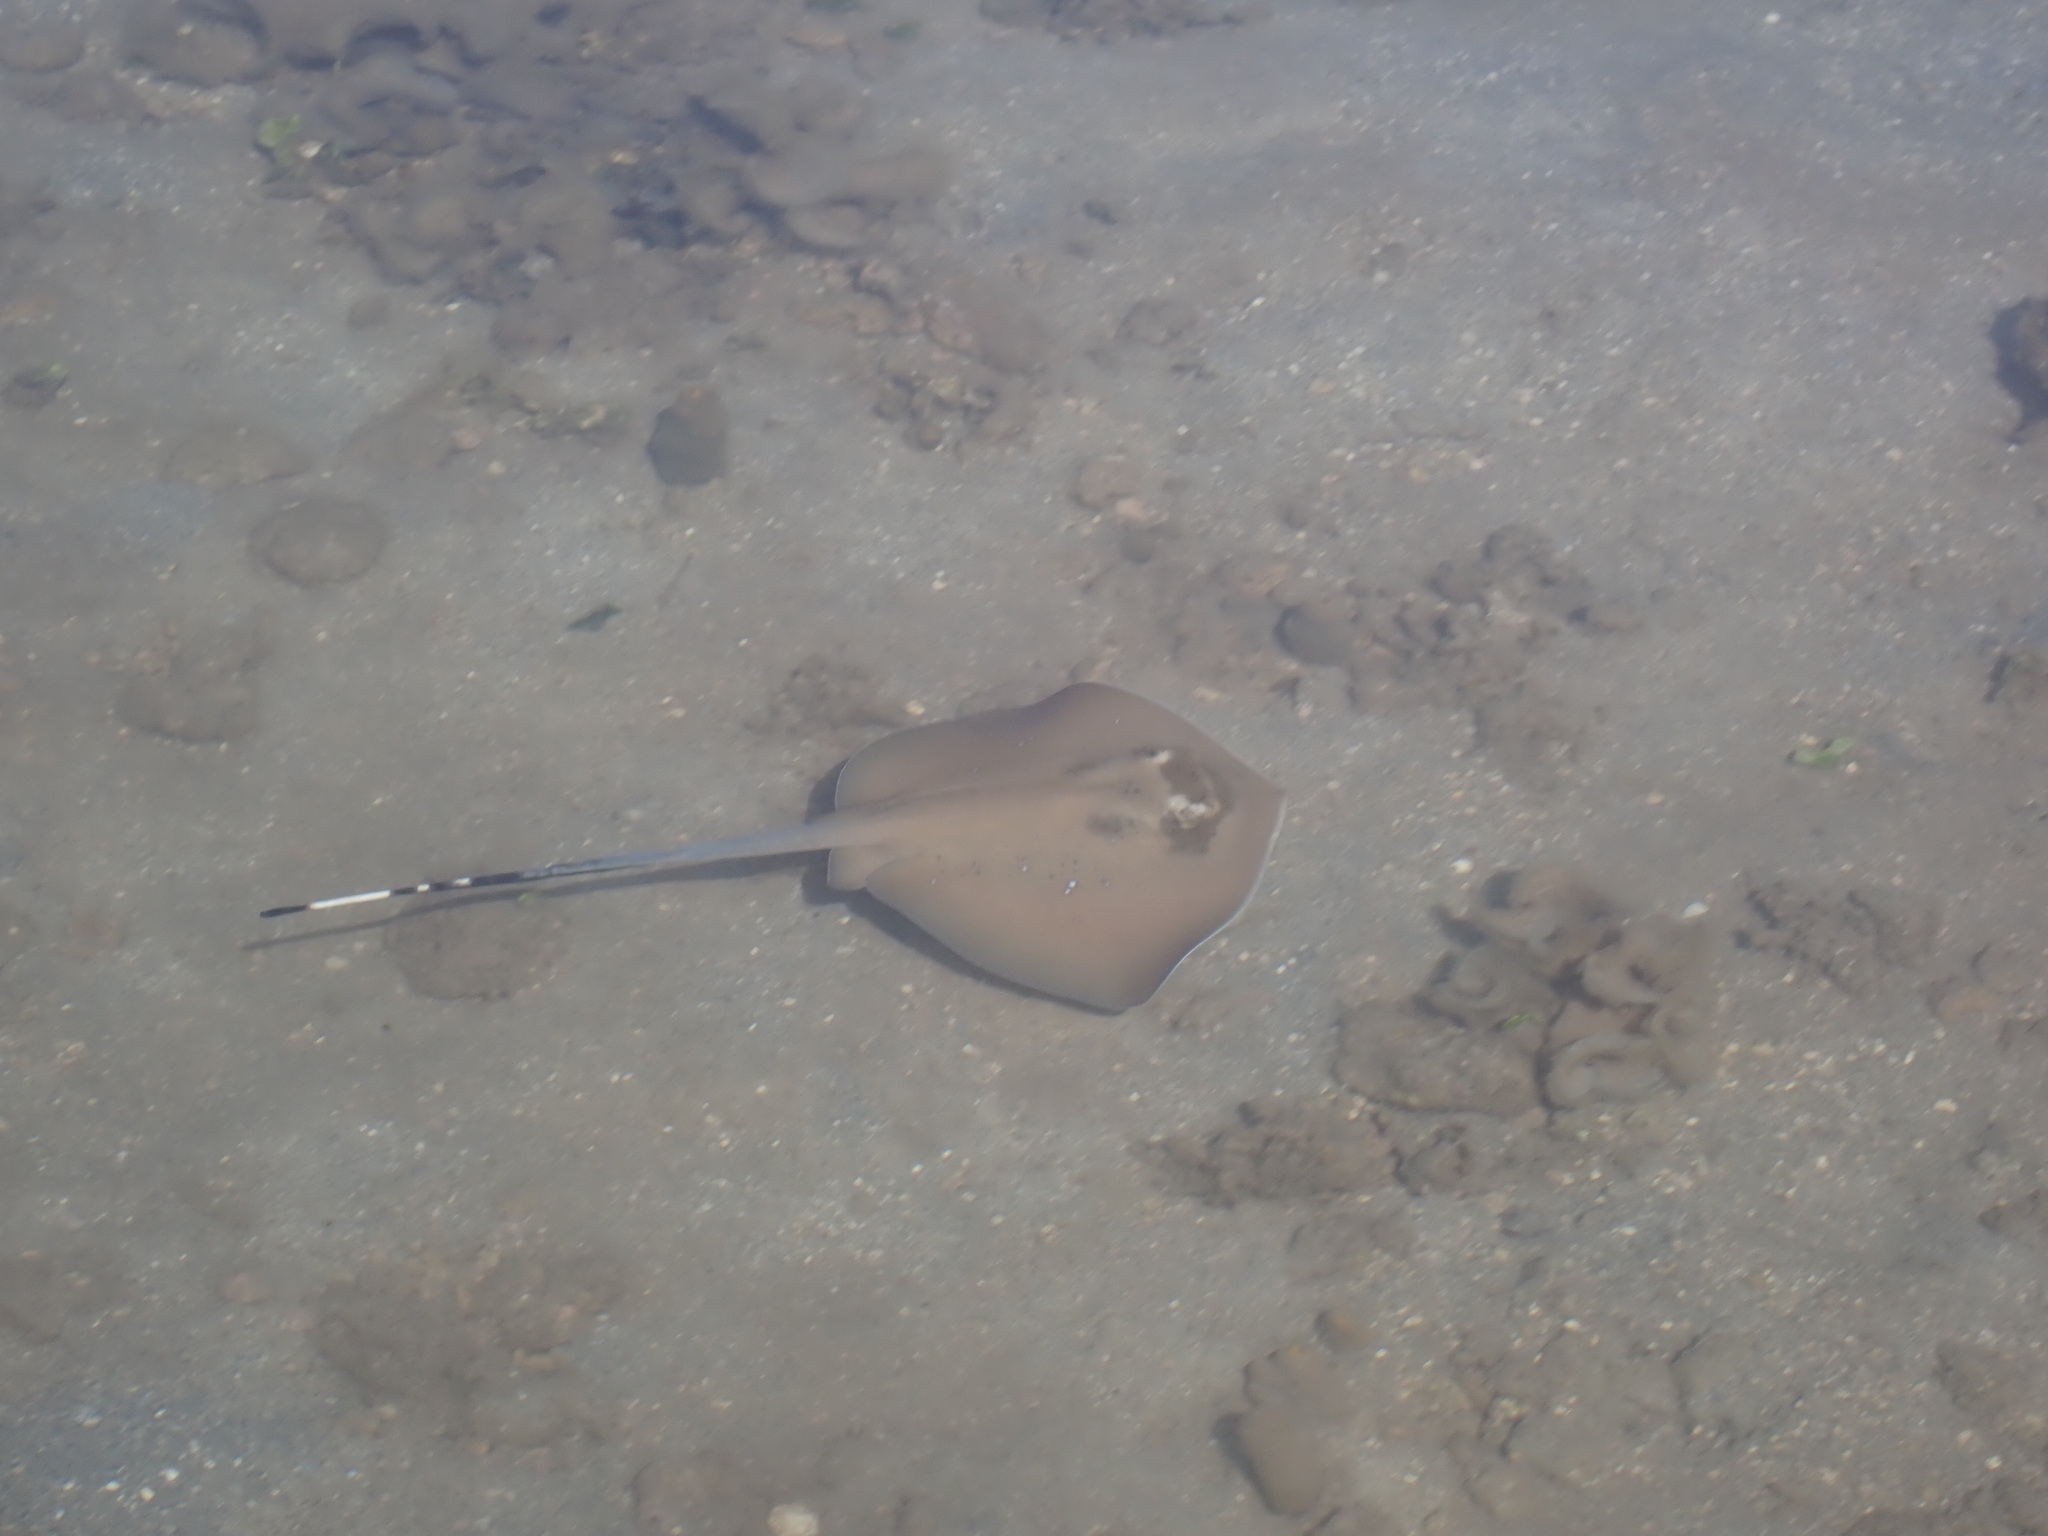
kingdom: Animalia
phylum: Chordata
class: Elasmobranchii
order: Myliobatiformes
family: Dasyatidae
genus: Neotrygon
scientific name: Neotrygon kuhlii
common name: Bluespotted stingray
